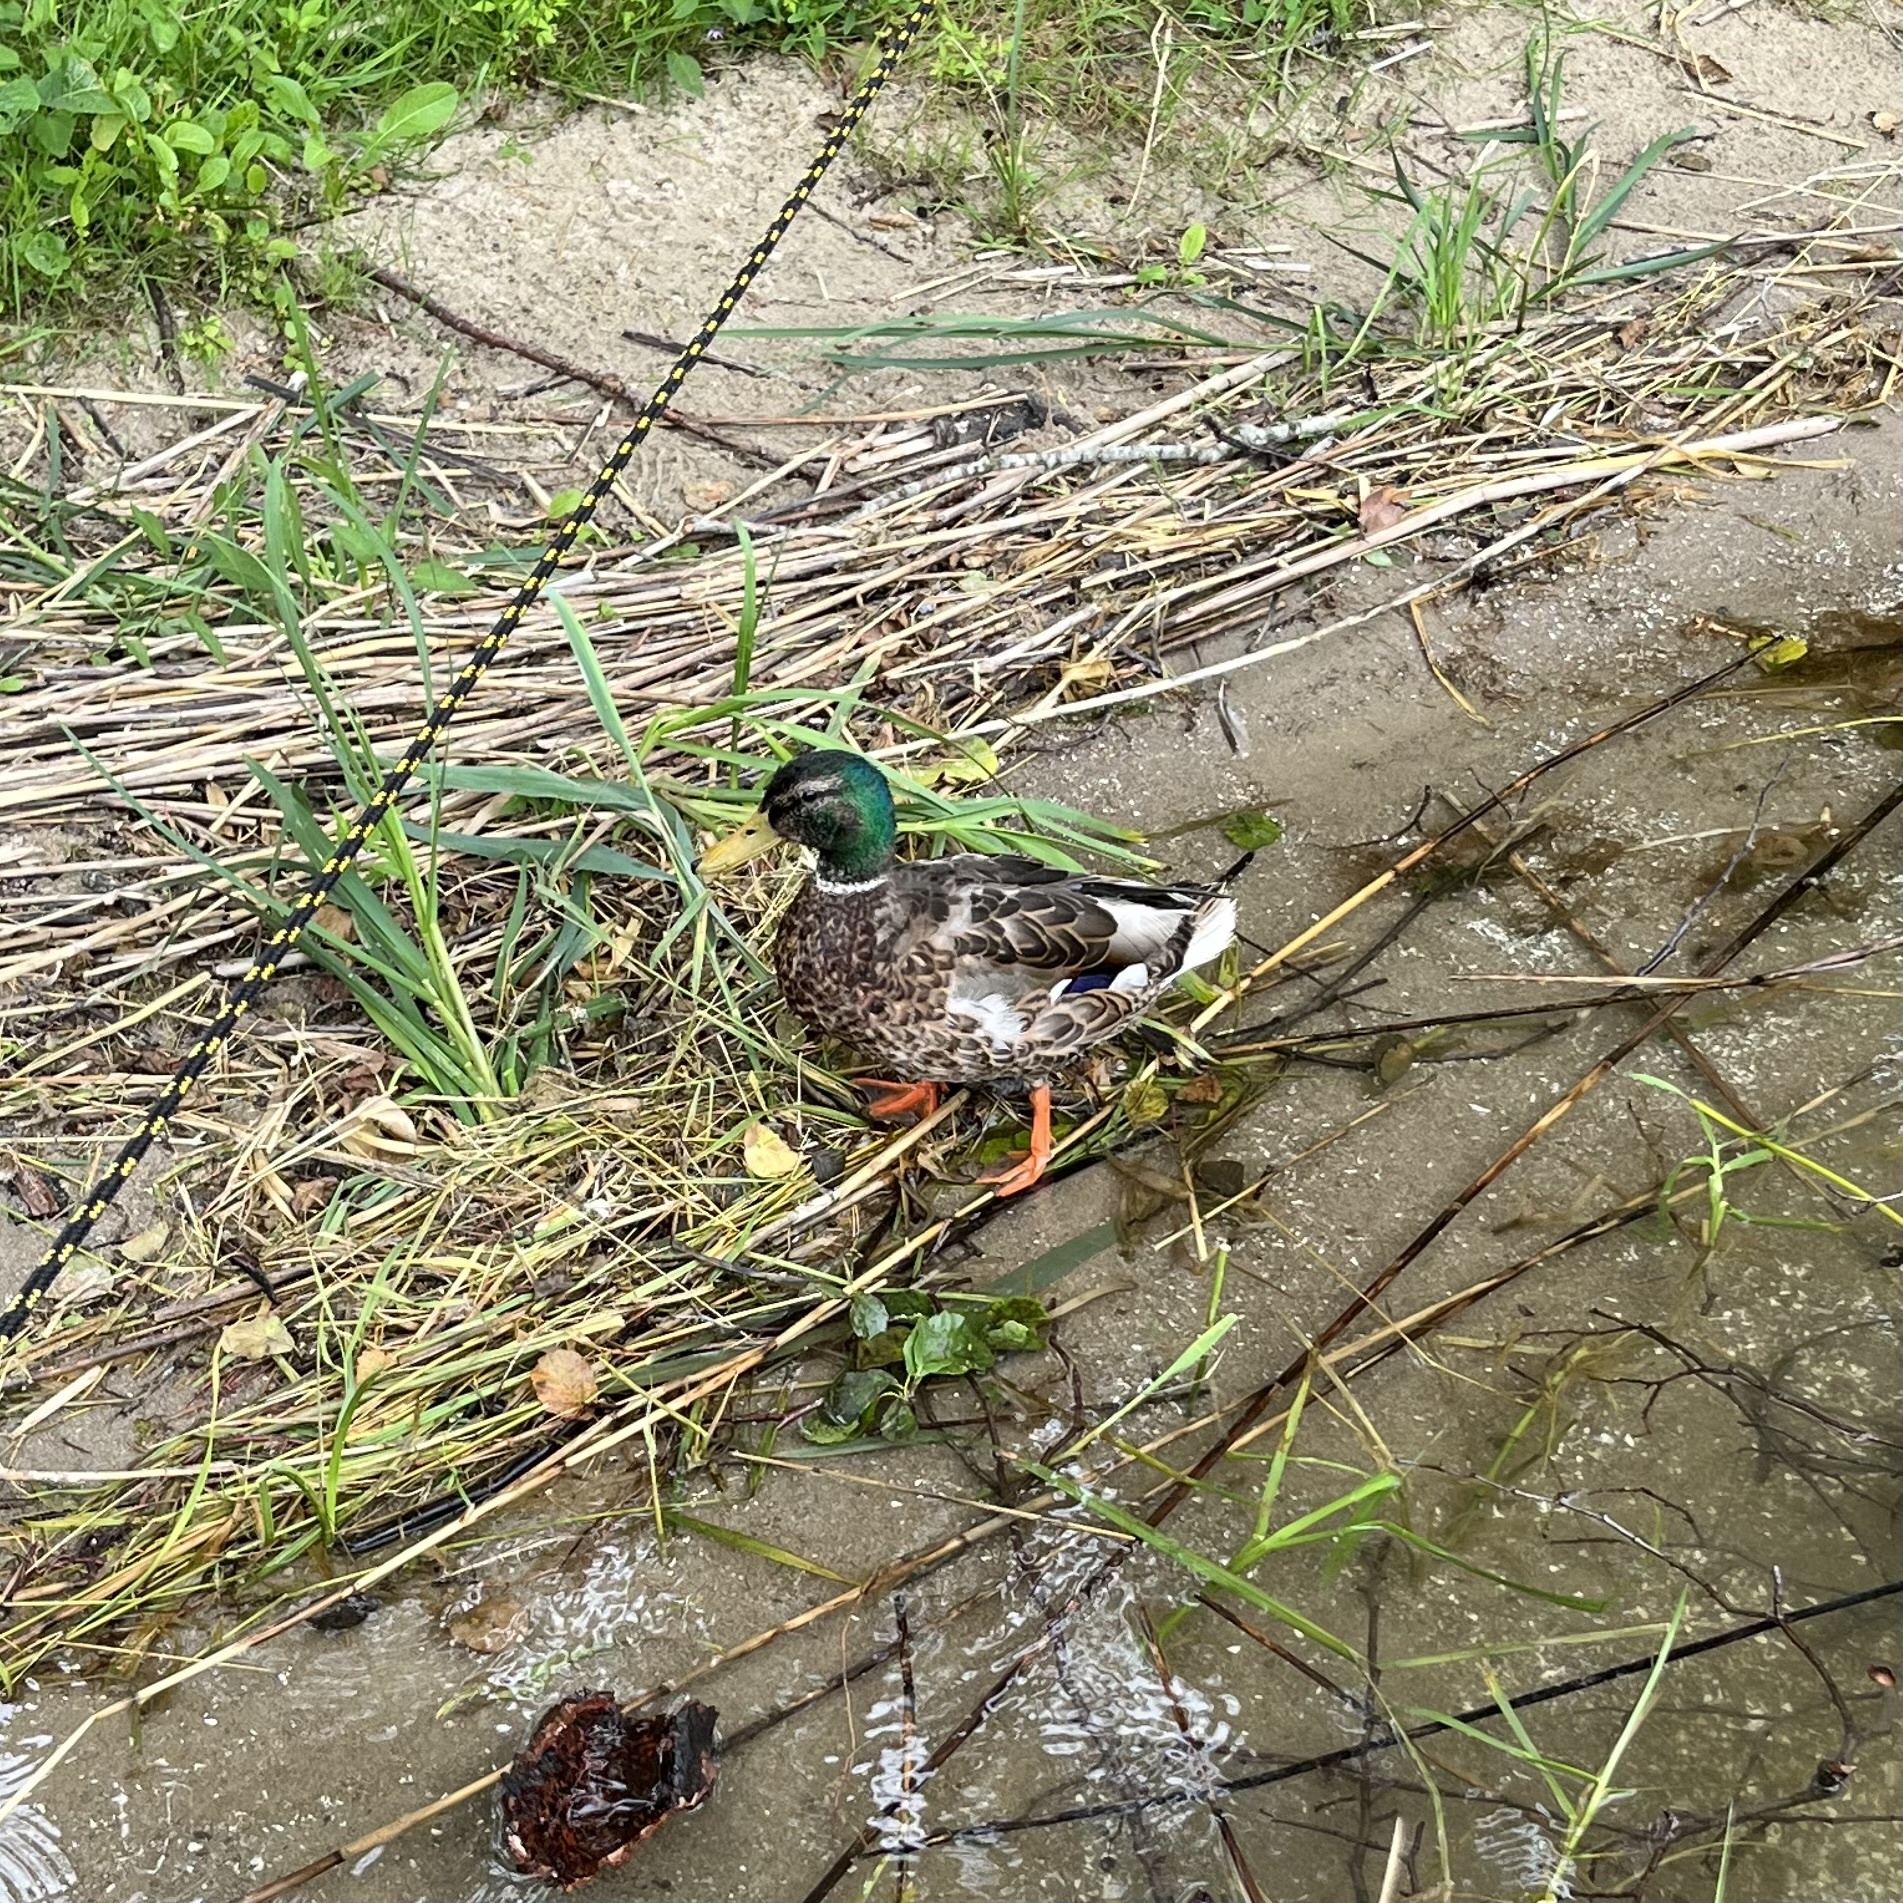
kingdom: Animalia
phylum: Chordata
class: Aves
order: Anseriformes
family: Anatidae
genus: Anas
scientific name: Anas platyrhynchos
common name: Mallard
